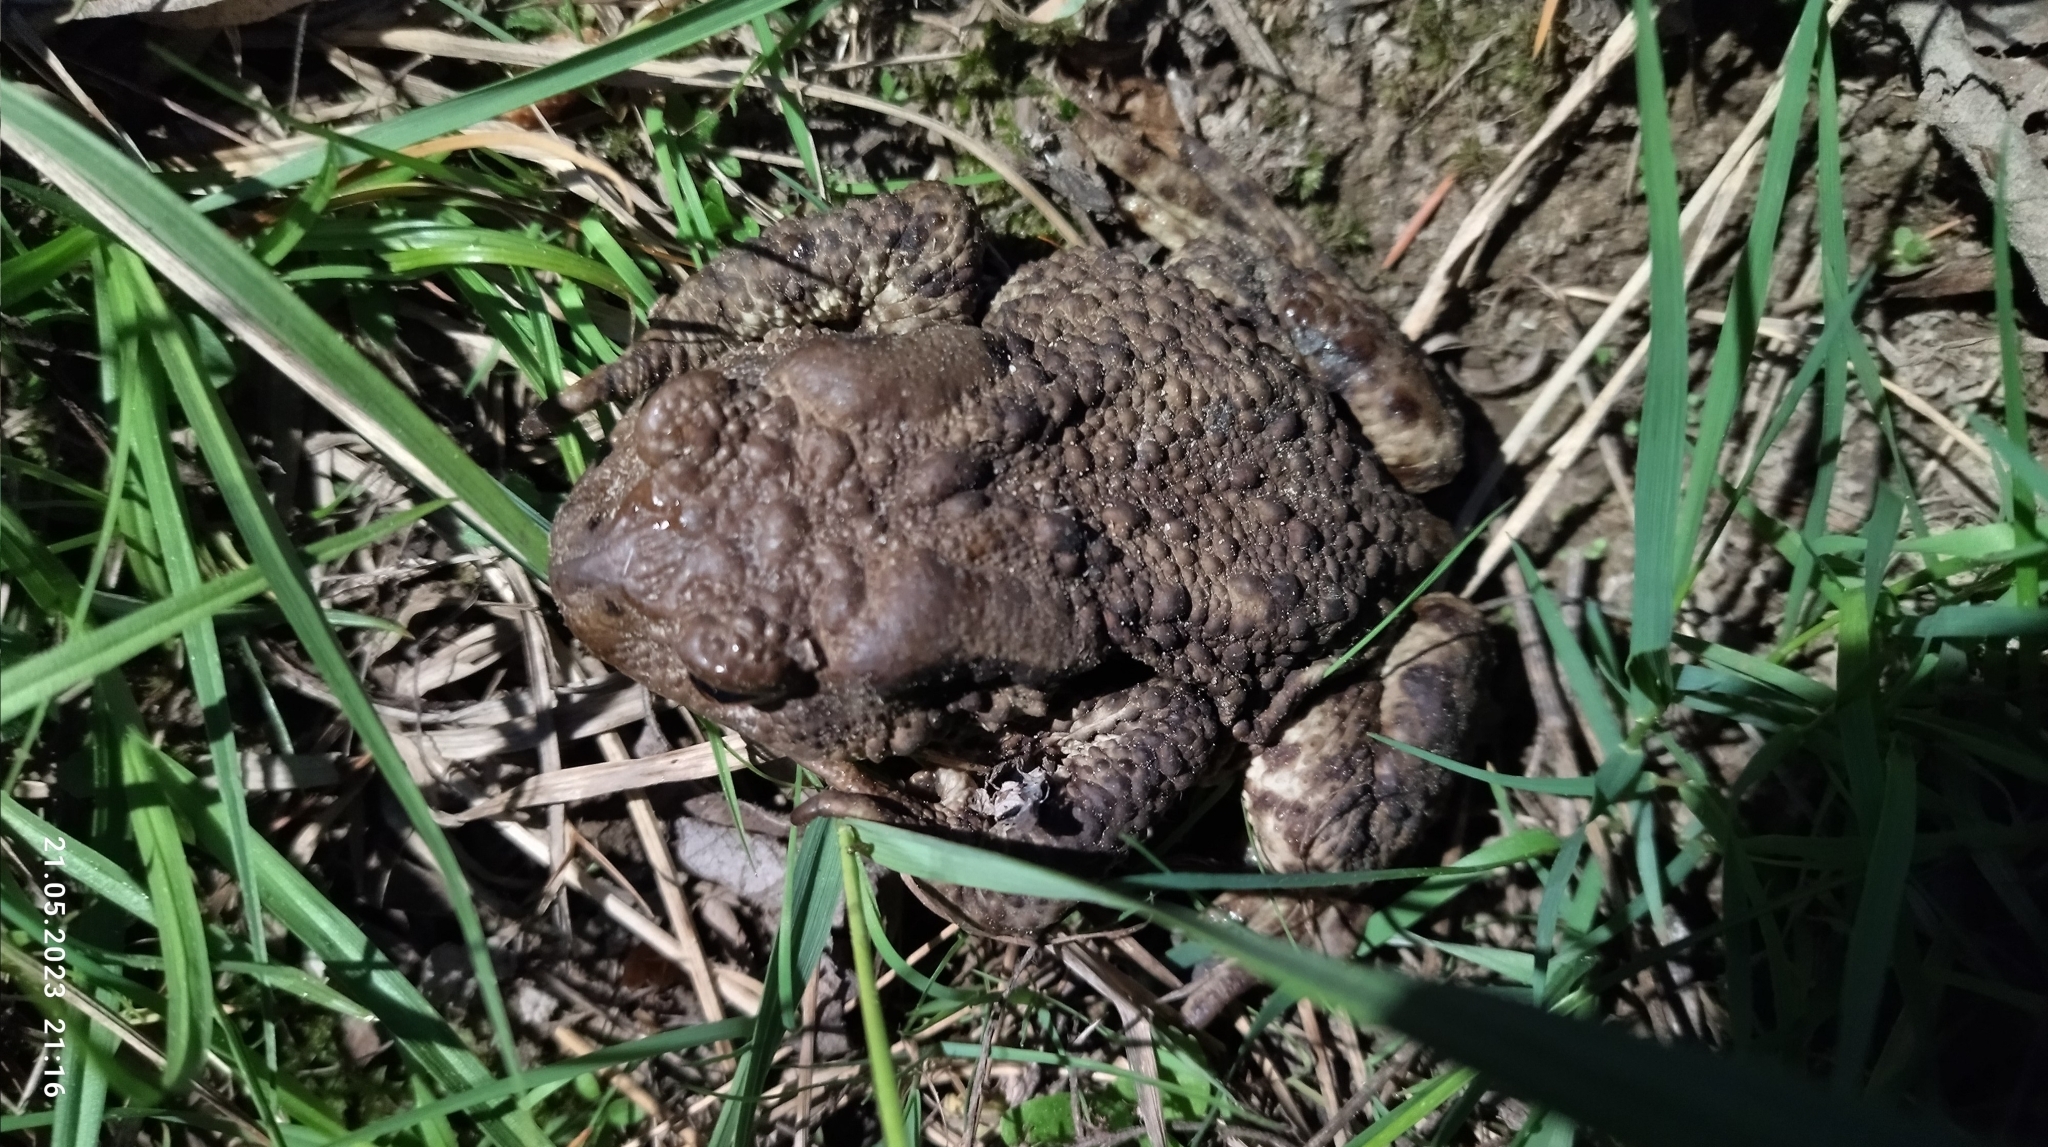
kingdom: Animalia
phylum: Chordata
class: Amphibia
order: Anura
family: Bufonidae
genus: Bufo
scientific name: Bufo bufo
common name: Common toad
